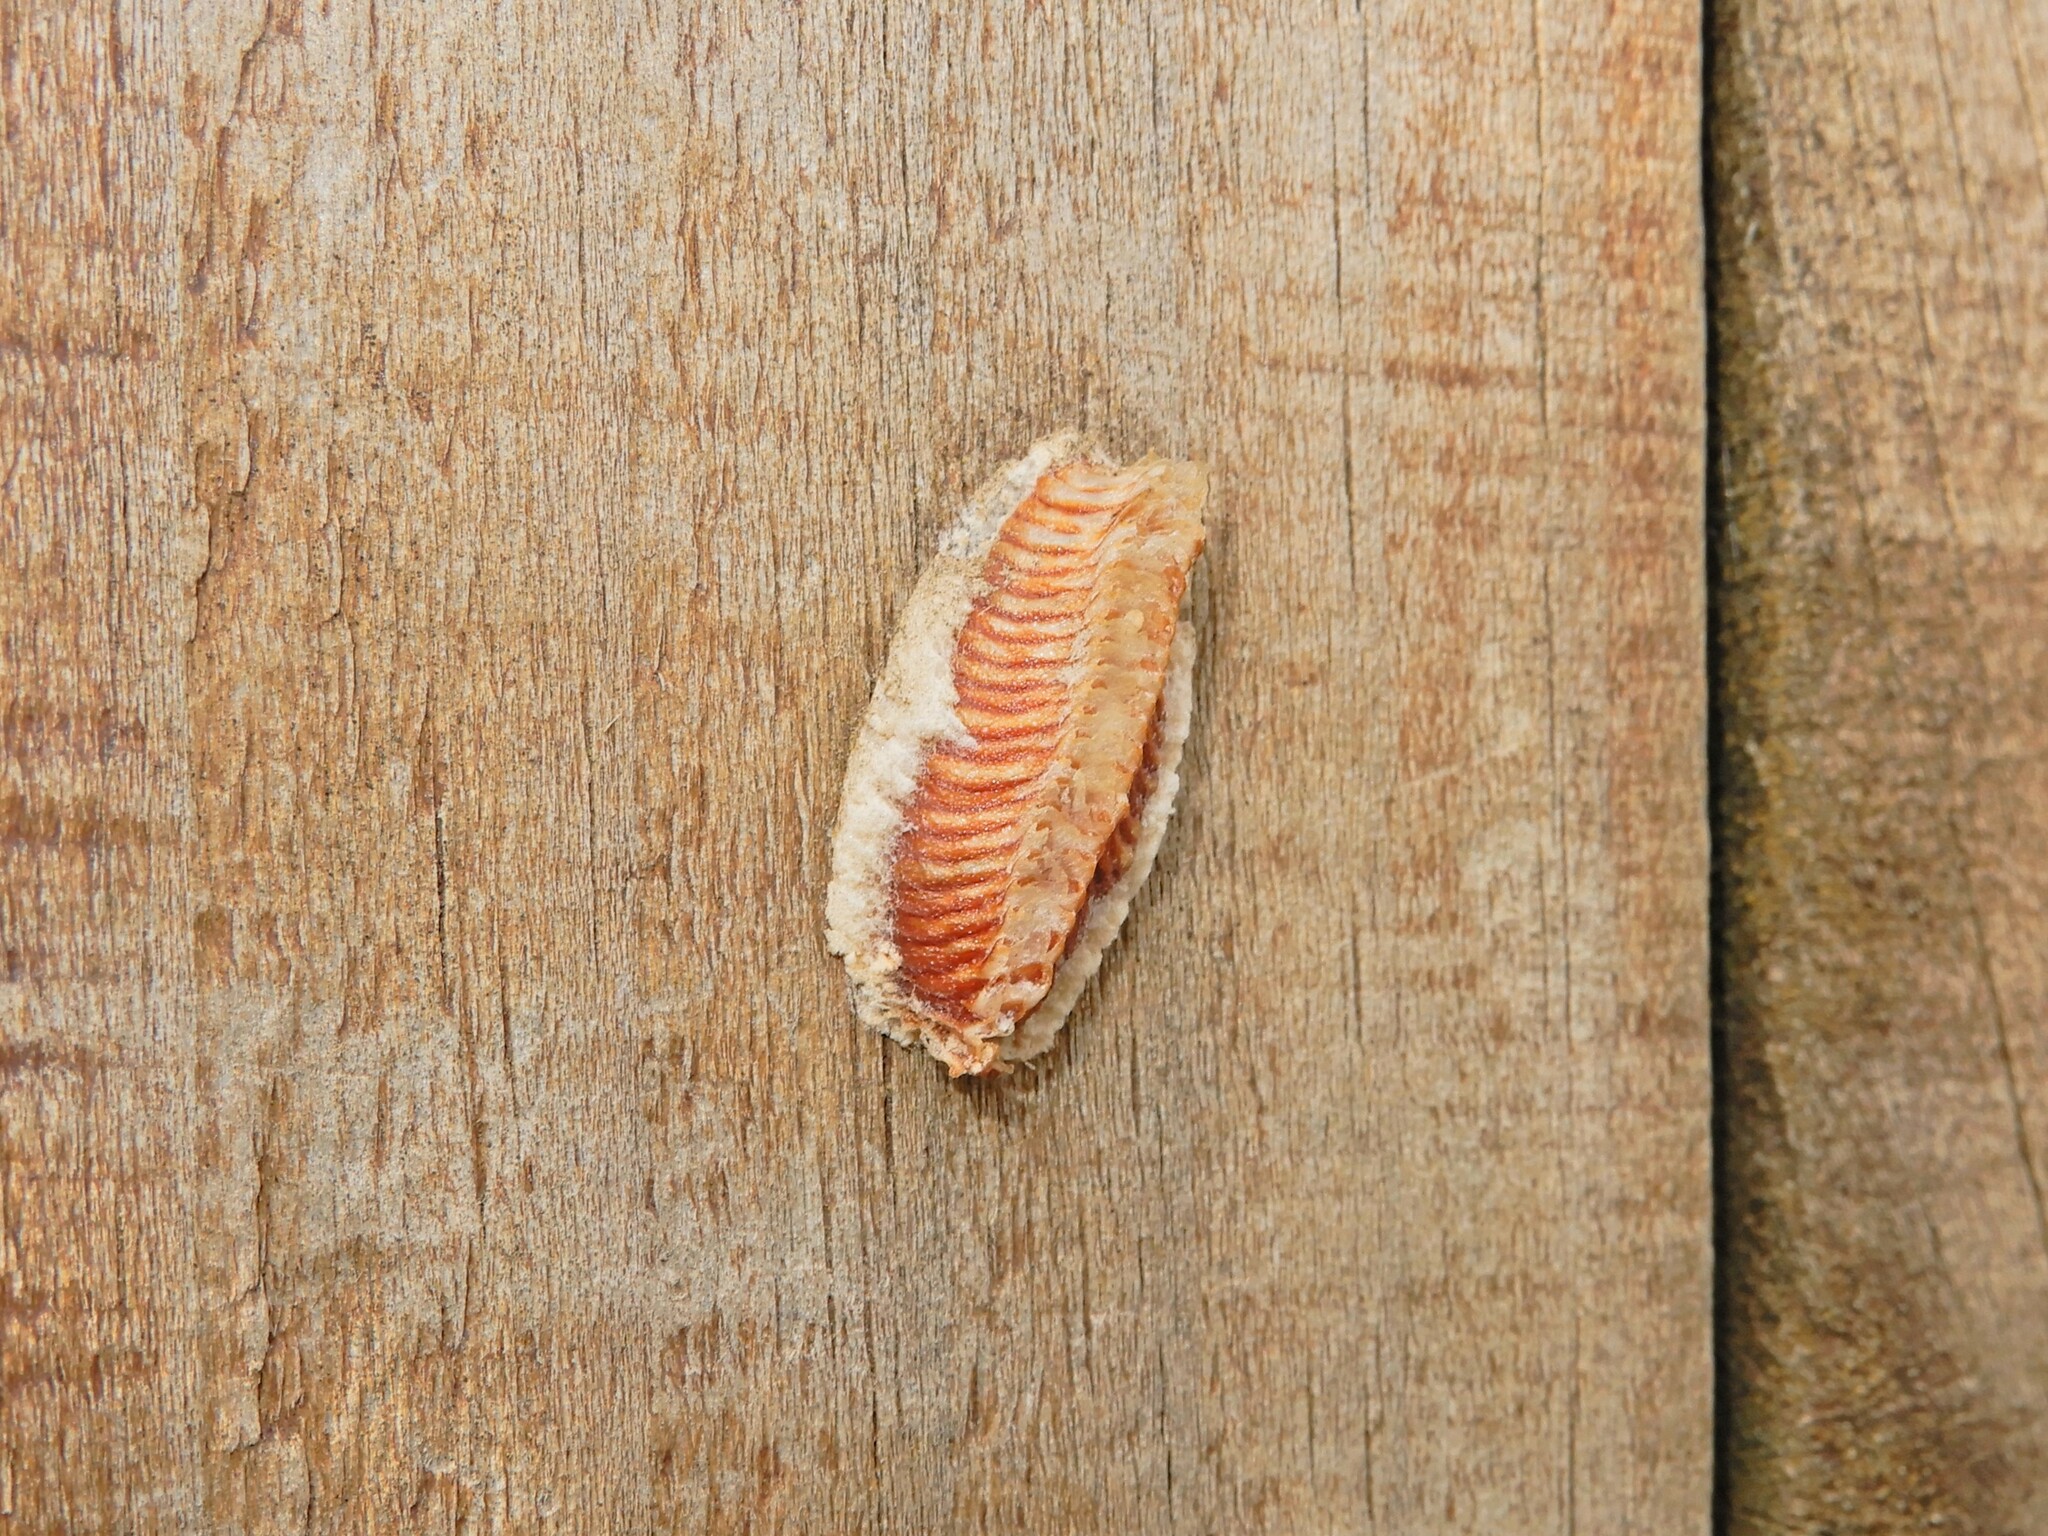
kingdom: Animalia
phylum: Arthropoda
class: Insecta
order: Mantodea
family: Miomantidae
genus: Miomantis
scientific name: Miomantis caffra
